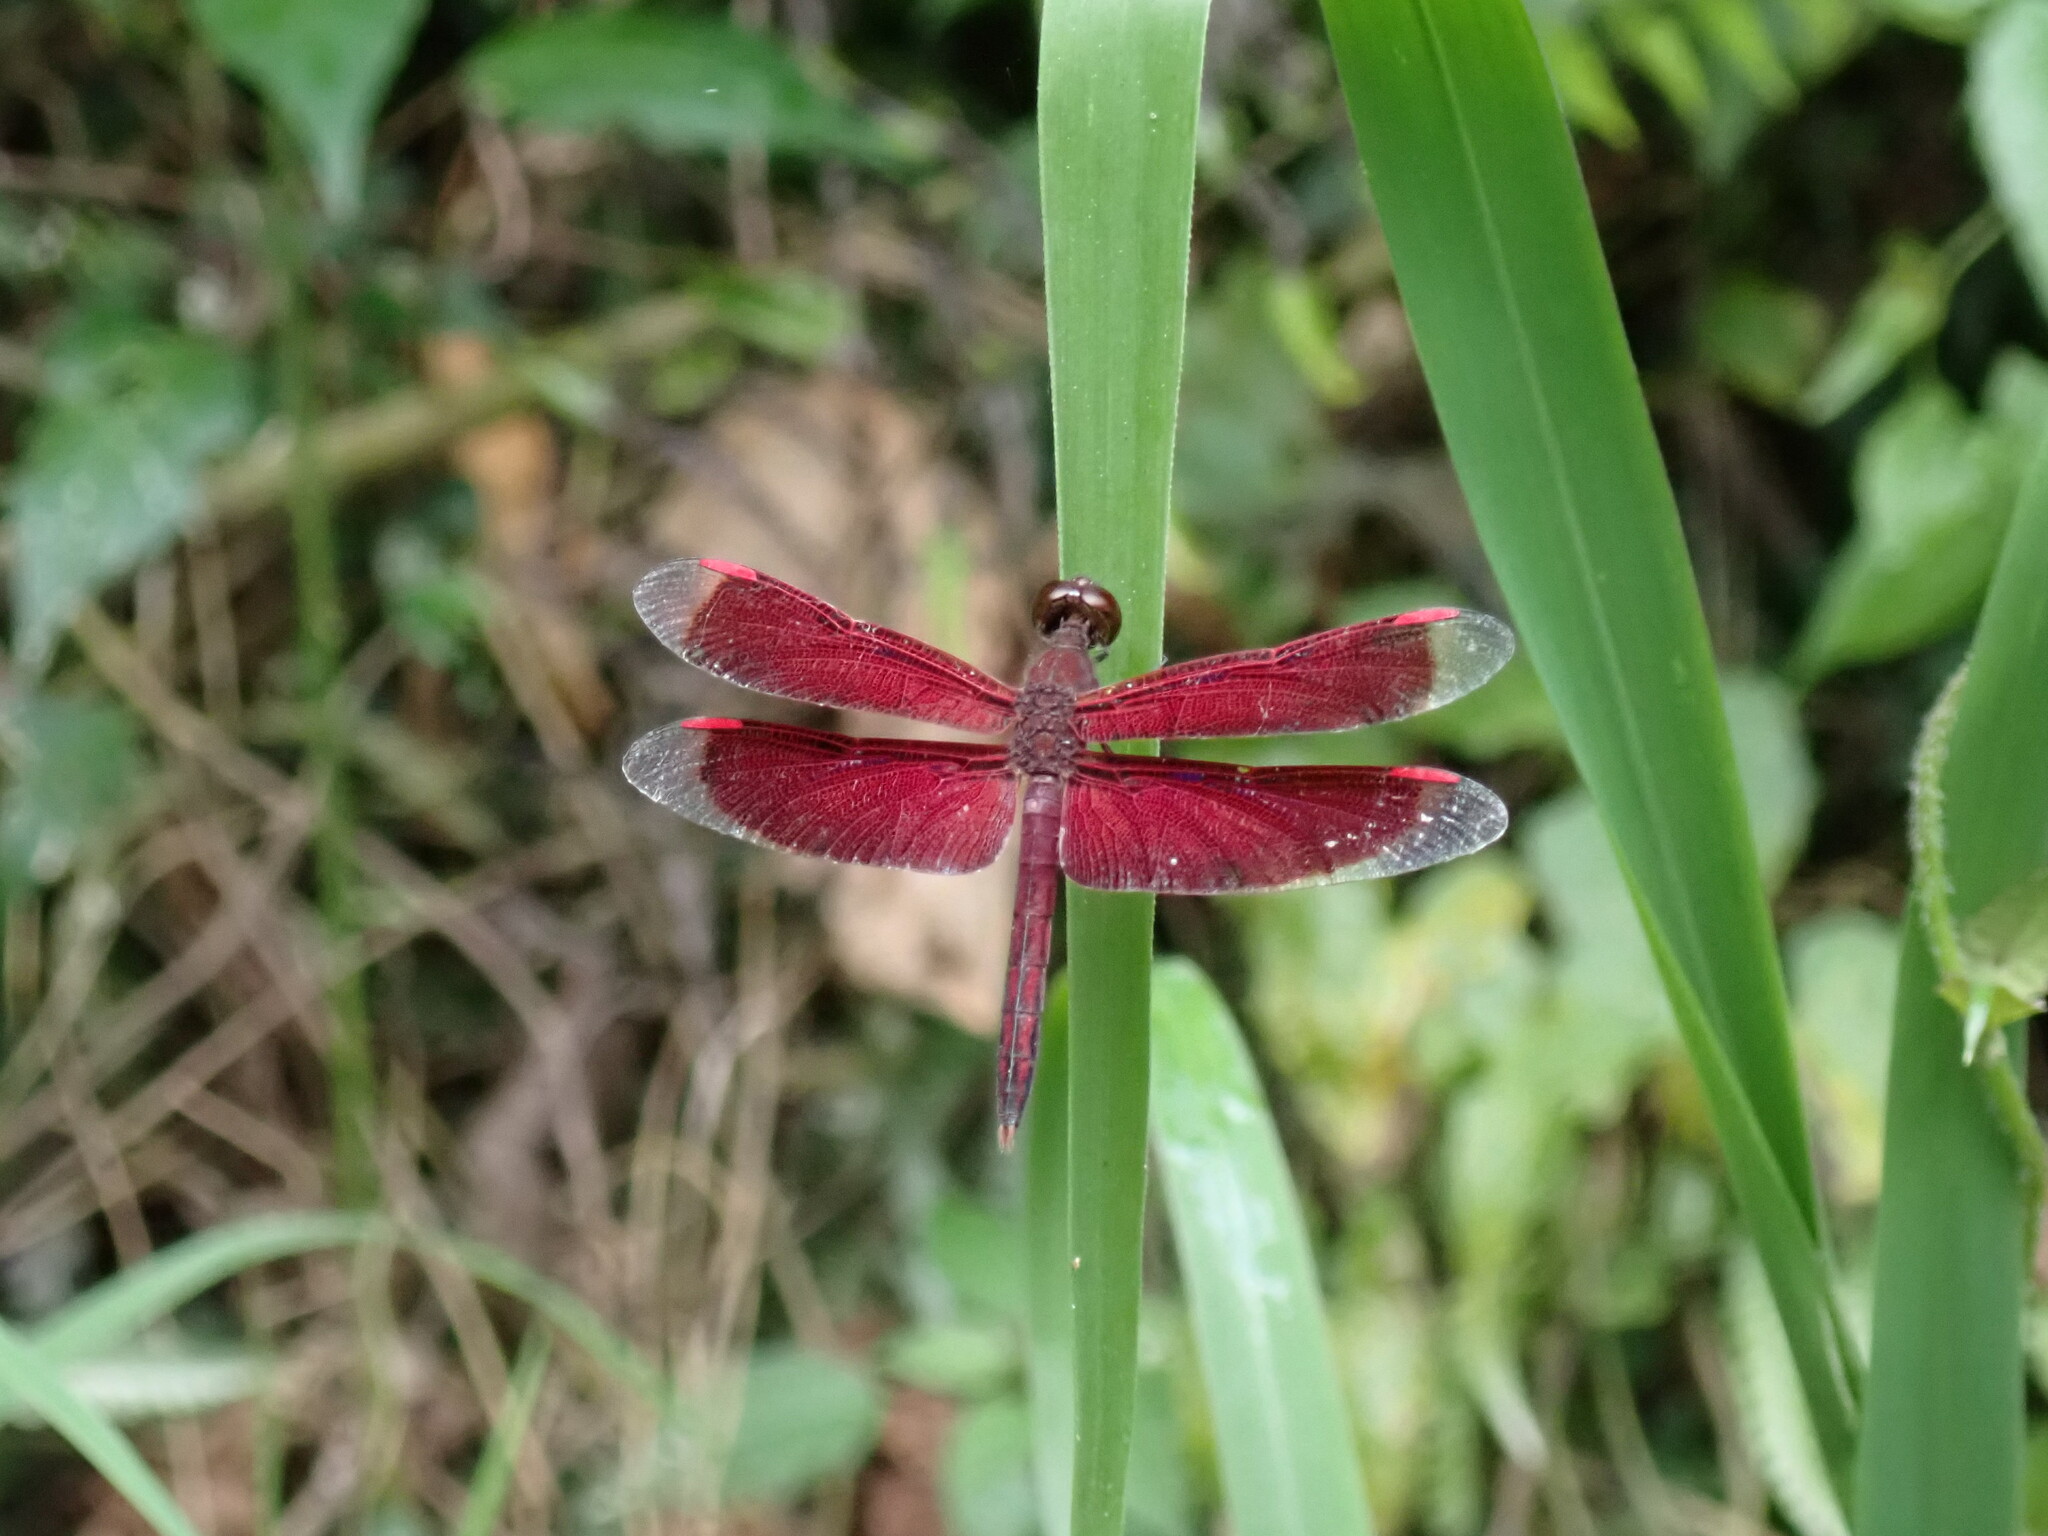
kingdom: Animalia
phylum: Arthropoda
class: Insecta
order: Odonata
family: Libellulidae
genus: Neurothemis
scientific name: Neurothemis stigmatizans
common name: Painted grasshawk
